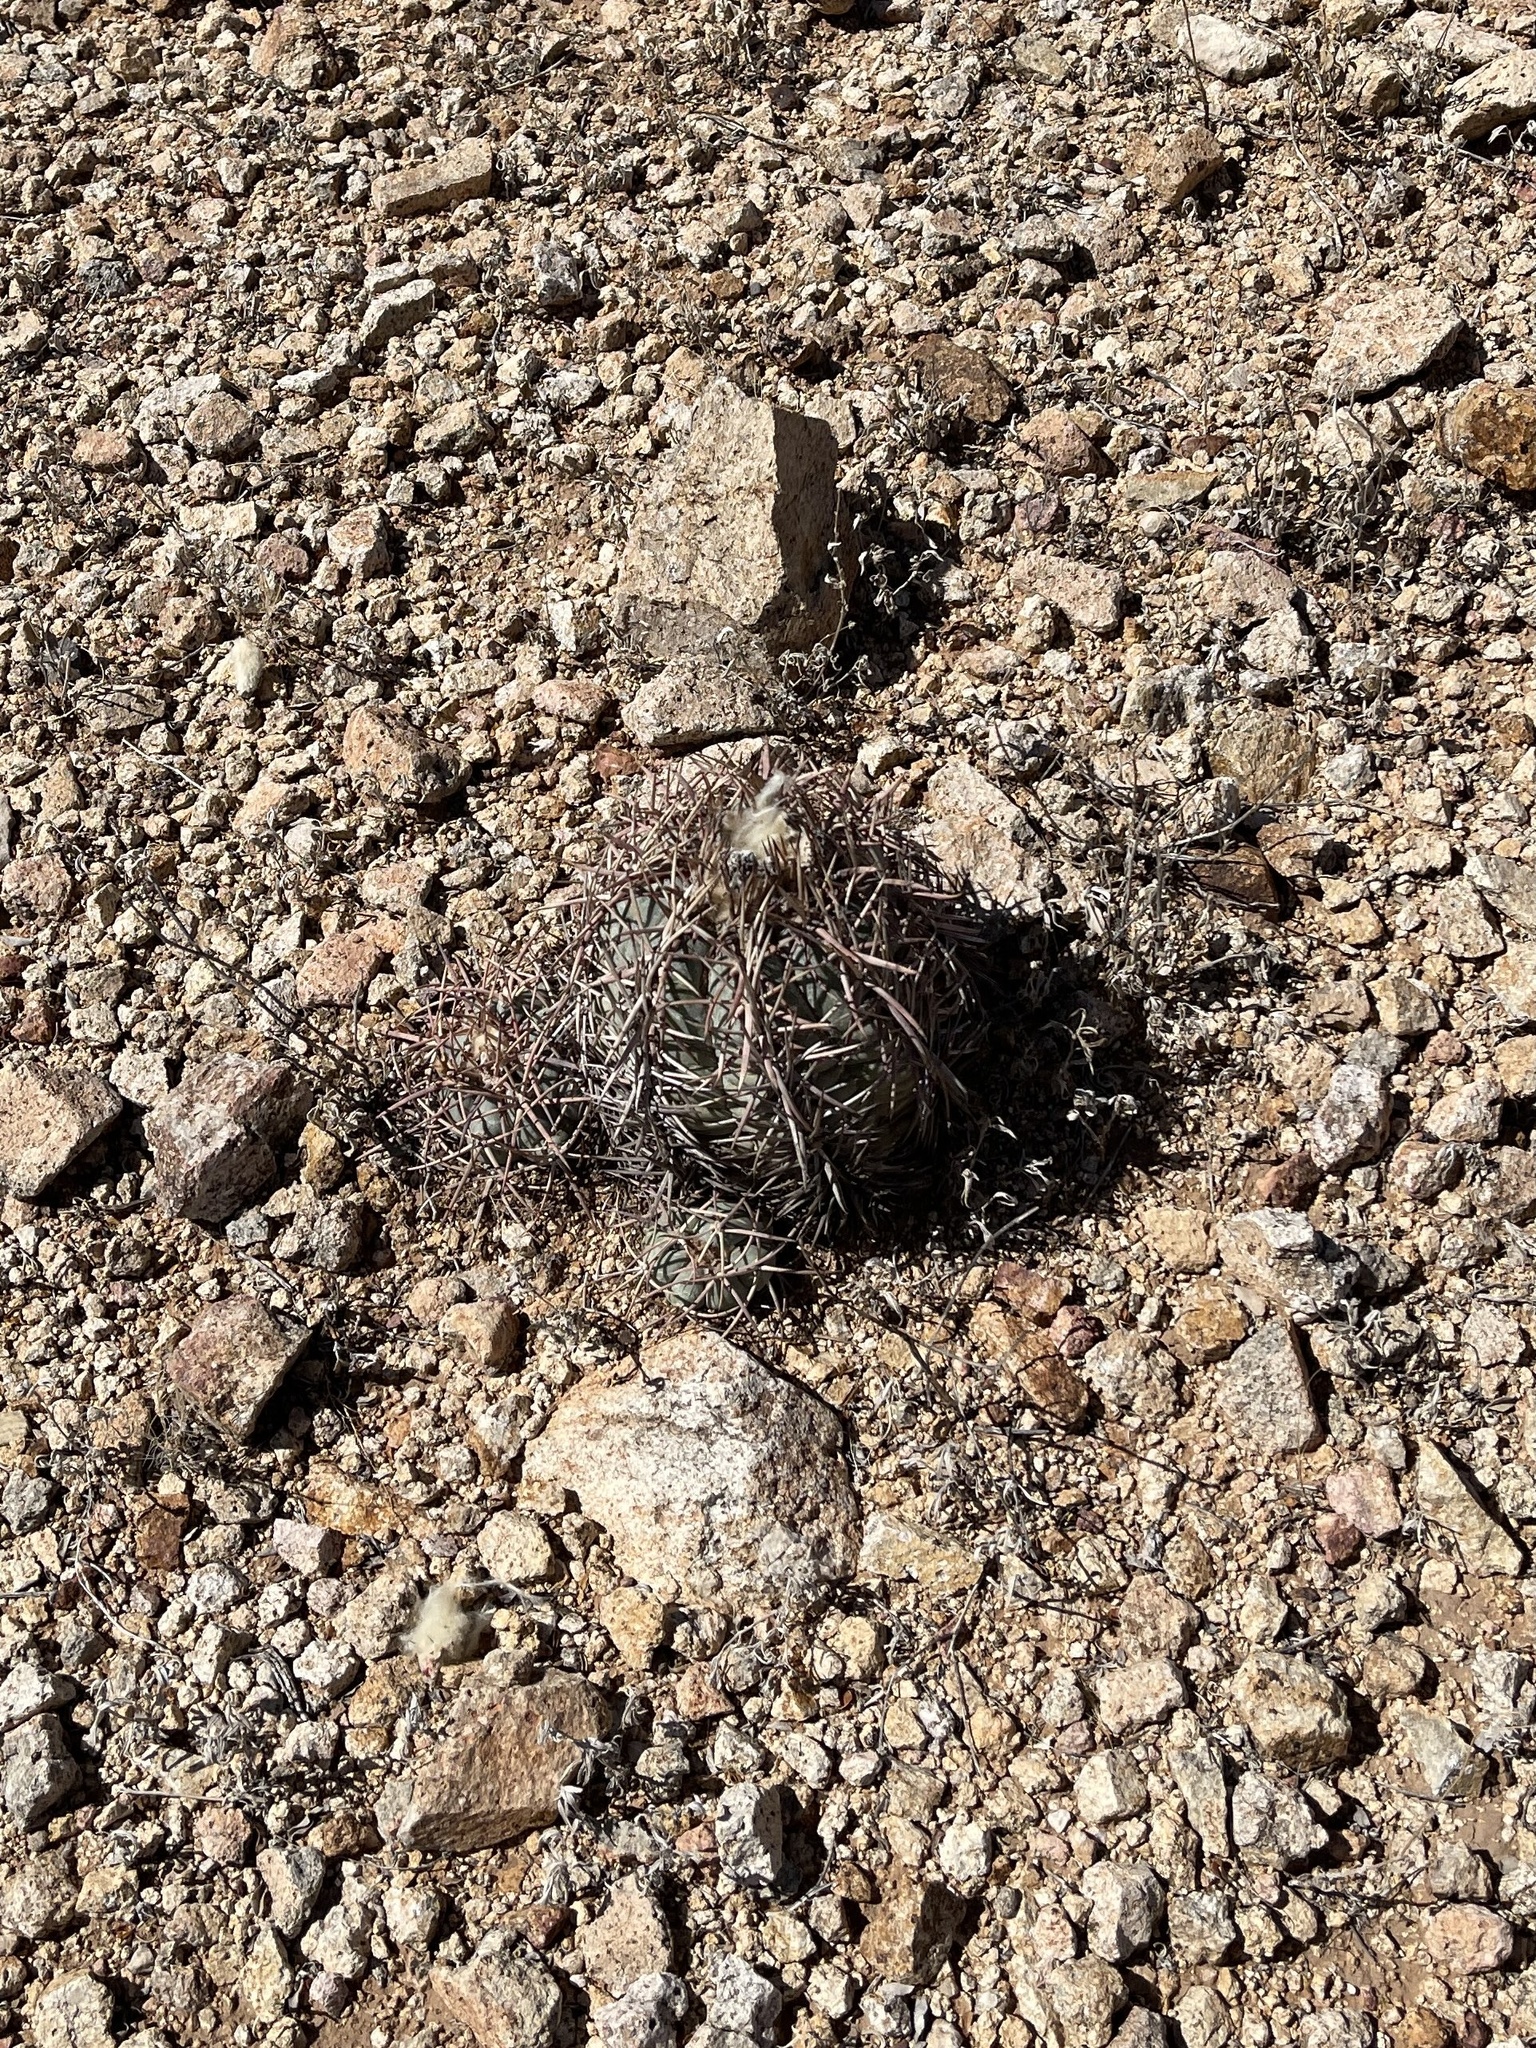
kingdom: Plantae
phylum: Tracheophyta
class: Magnoliopsida
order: Caryophyllales
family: Cactaceae
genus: Echinocactus
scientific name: Echinocactus horizonthalonius
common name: Devilshead
